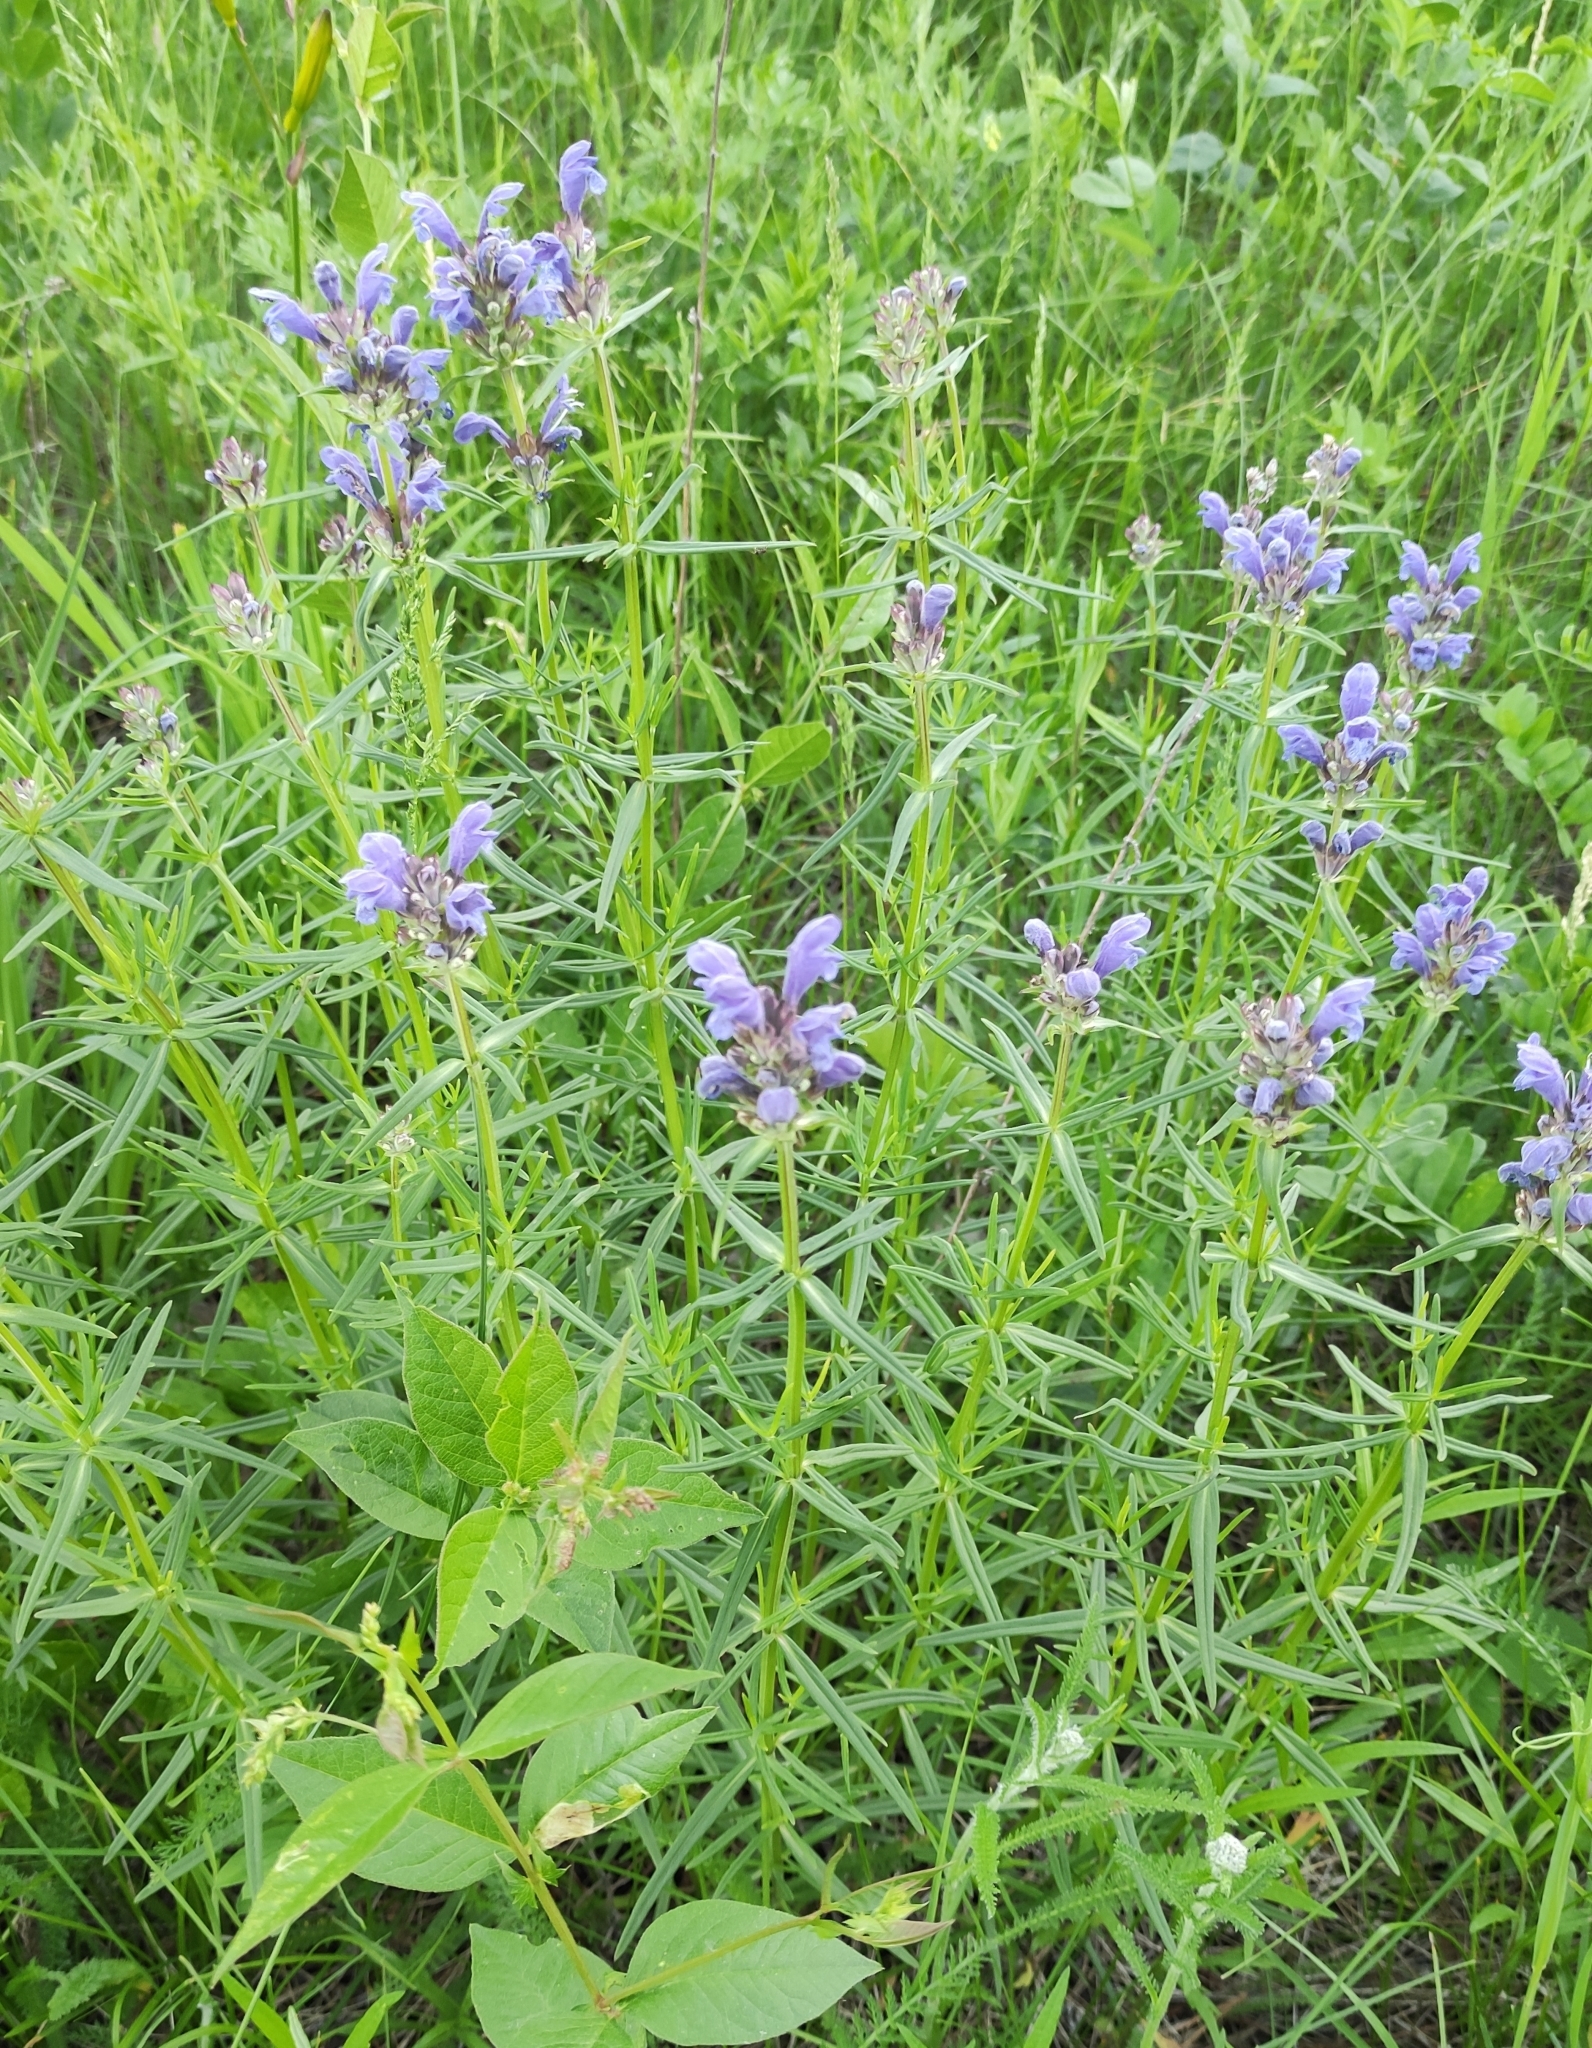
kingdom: Plantae
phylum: Tracheophyta
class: Magnoliopsida
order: Lamiales
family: Lamiaceae
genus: Dracocephalum
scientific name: Dracocephalum ruyschiana
